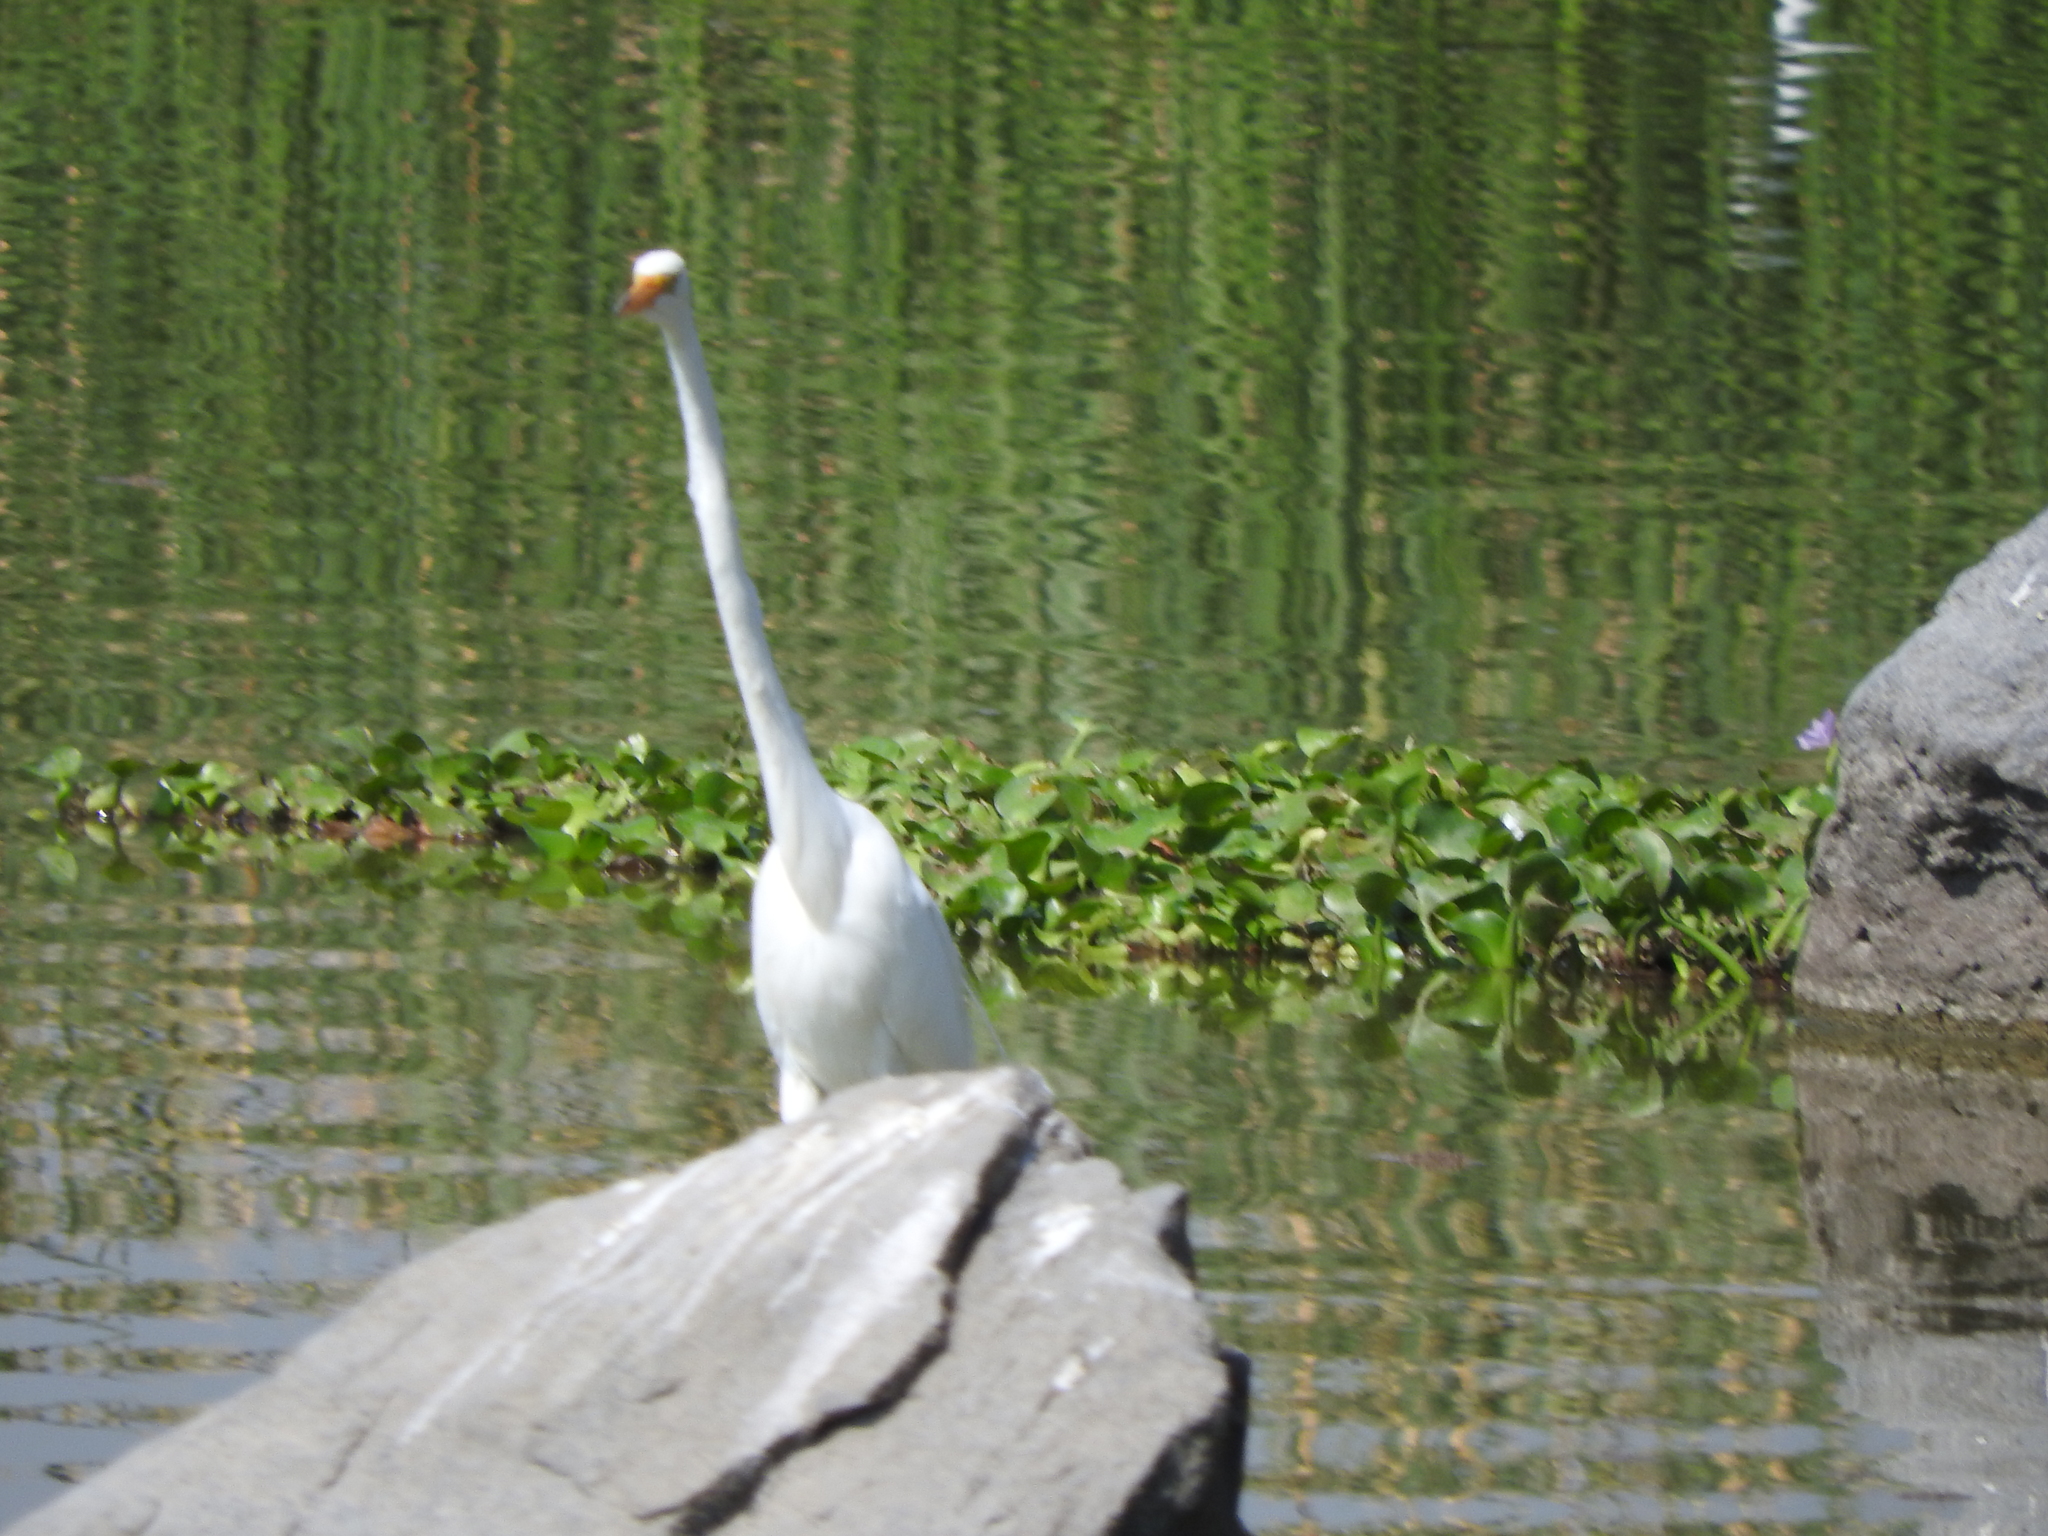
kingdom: Animalia
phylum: Chordata
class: Aves
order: Pelecaniformes
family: Ardeidae
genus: Ardea
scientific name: Ardea alba
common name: Great egret
